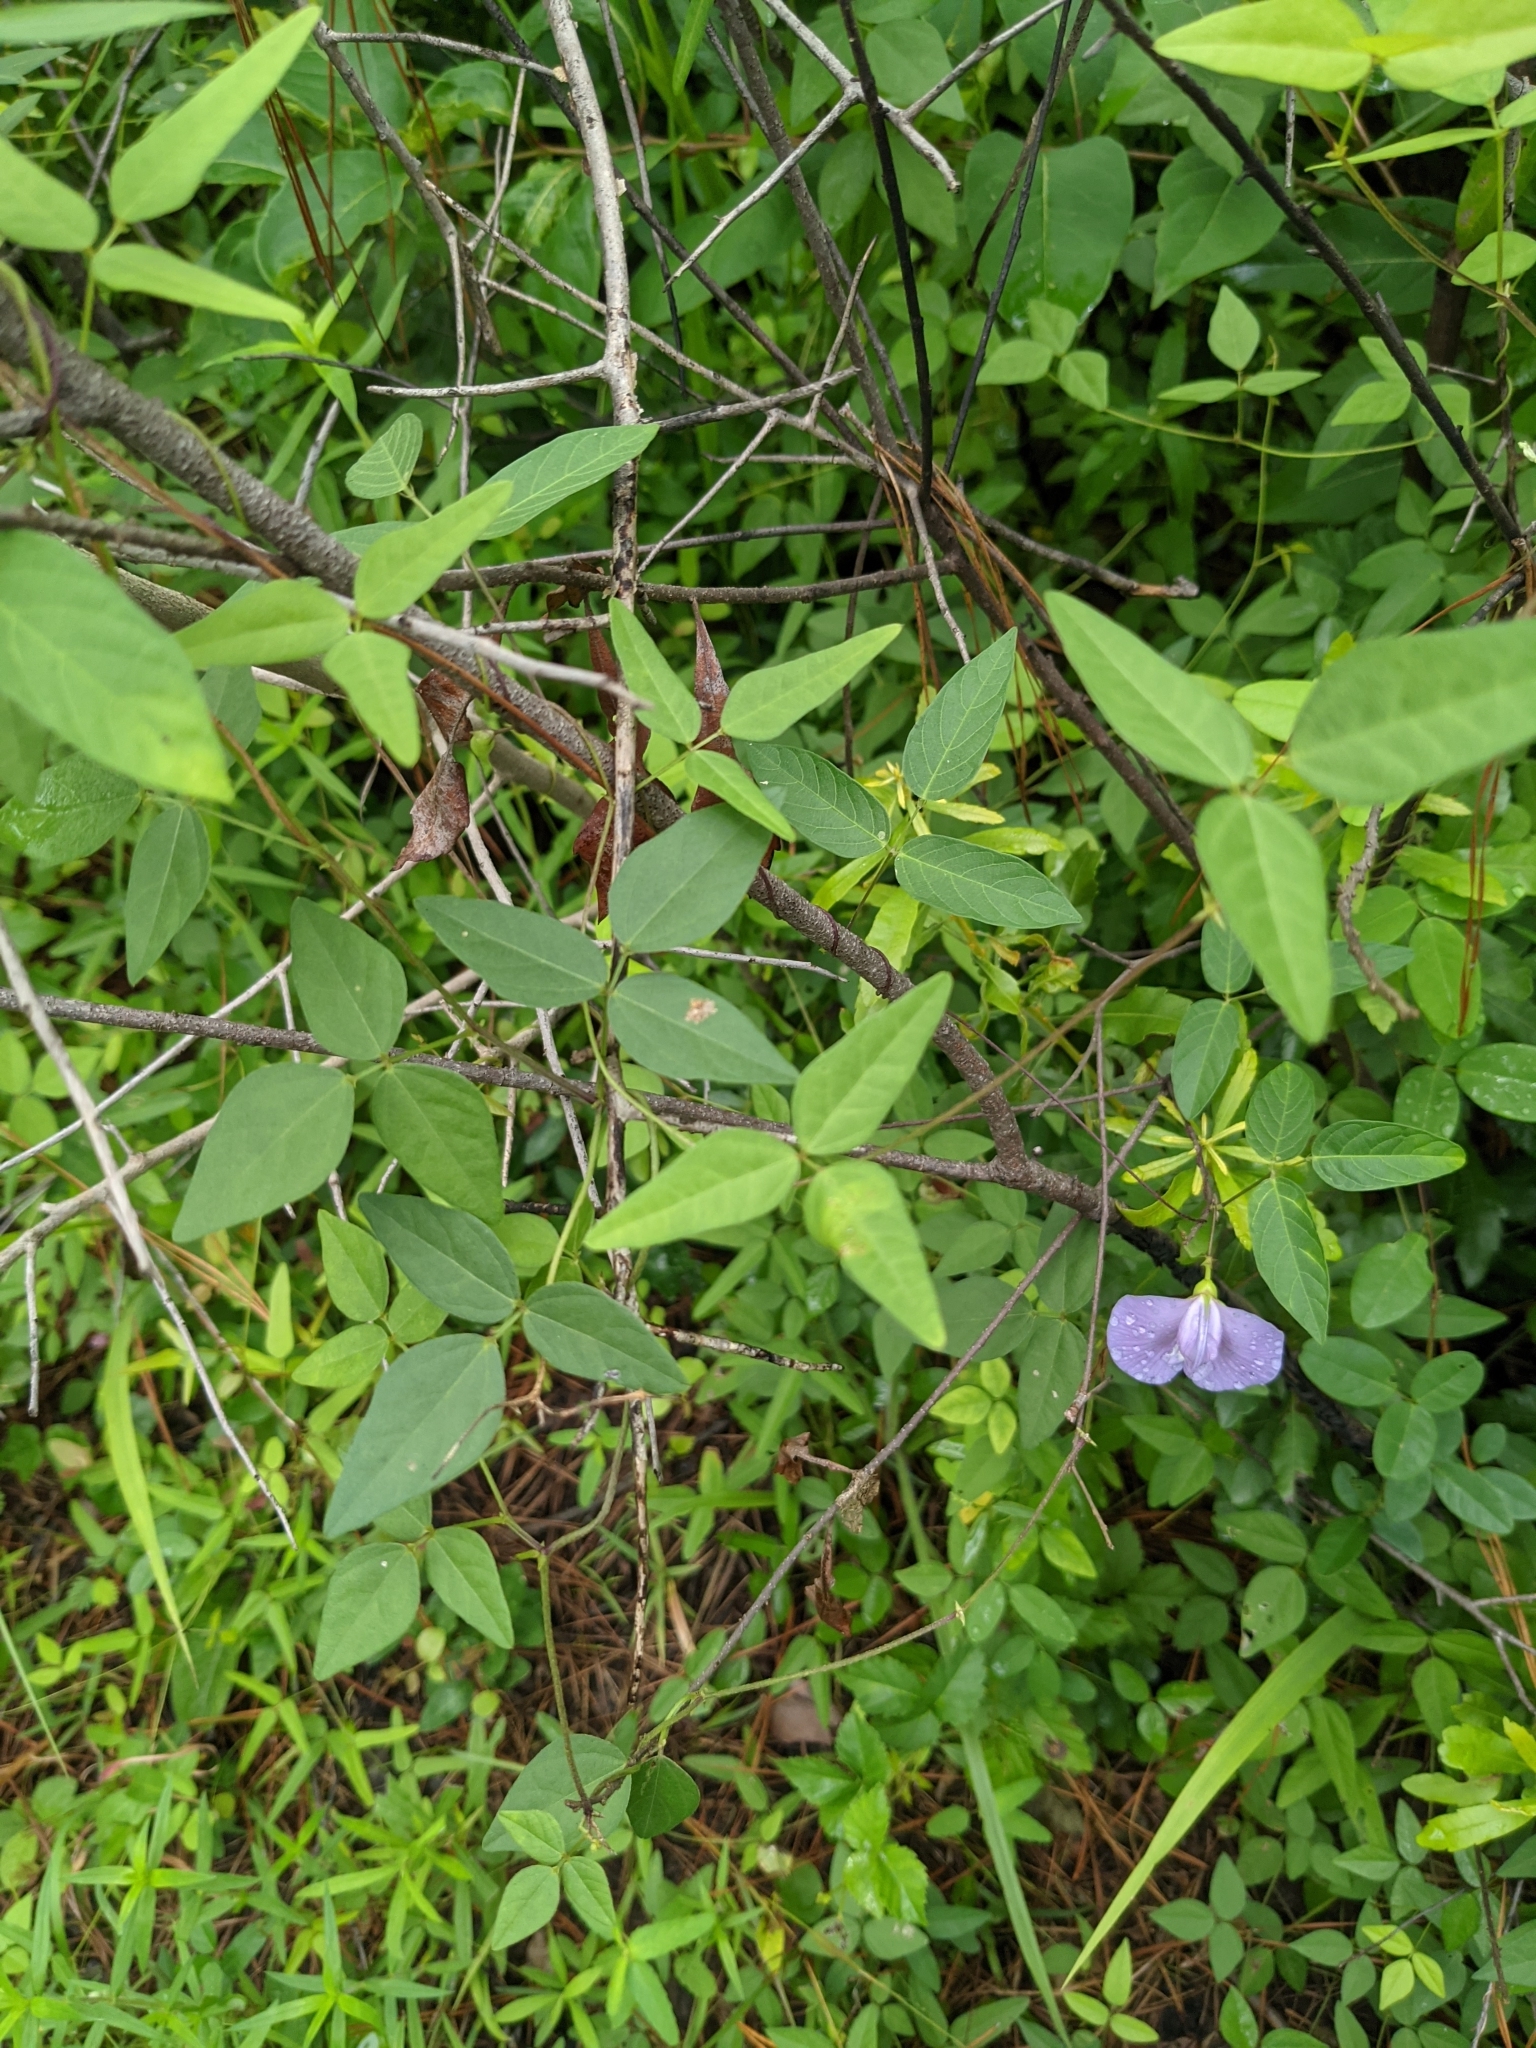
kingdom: Plantae
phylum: Tracheophyta
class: Magnoliopsida
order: Fabales
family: Fabaceae
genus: Centrosema
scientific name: Centrosema virginianum
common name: Butterfly-pea
